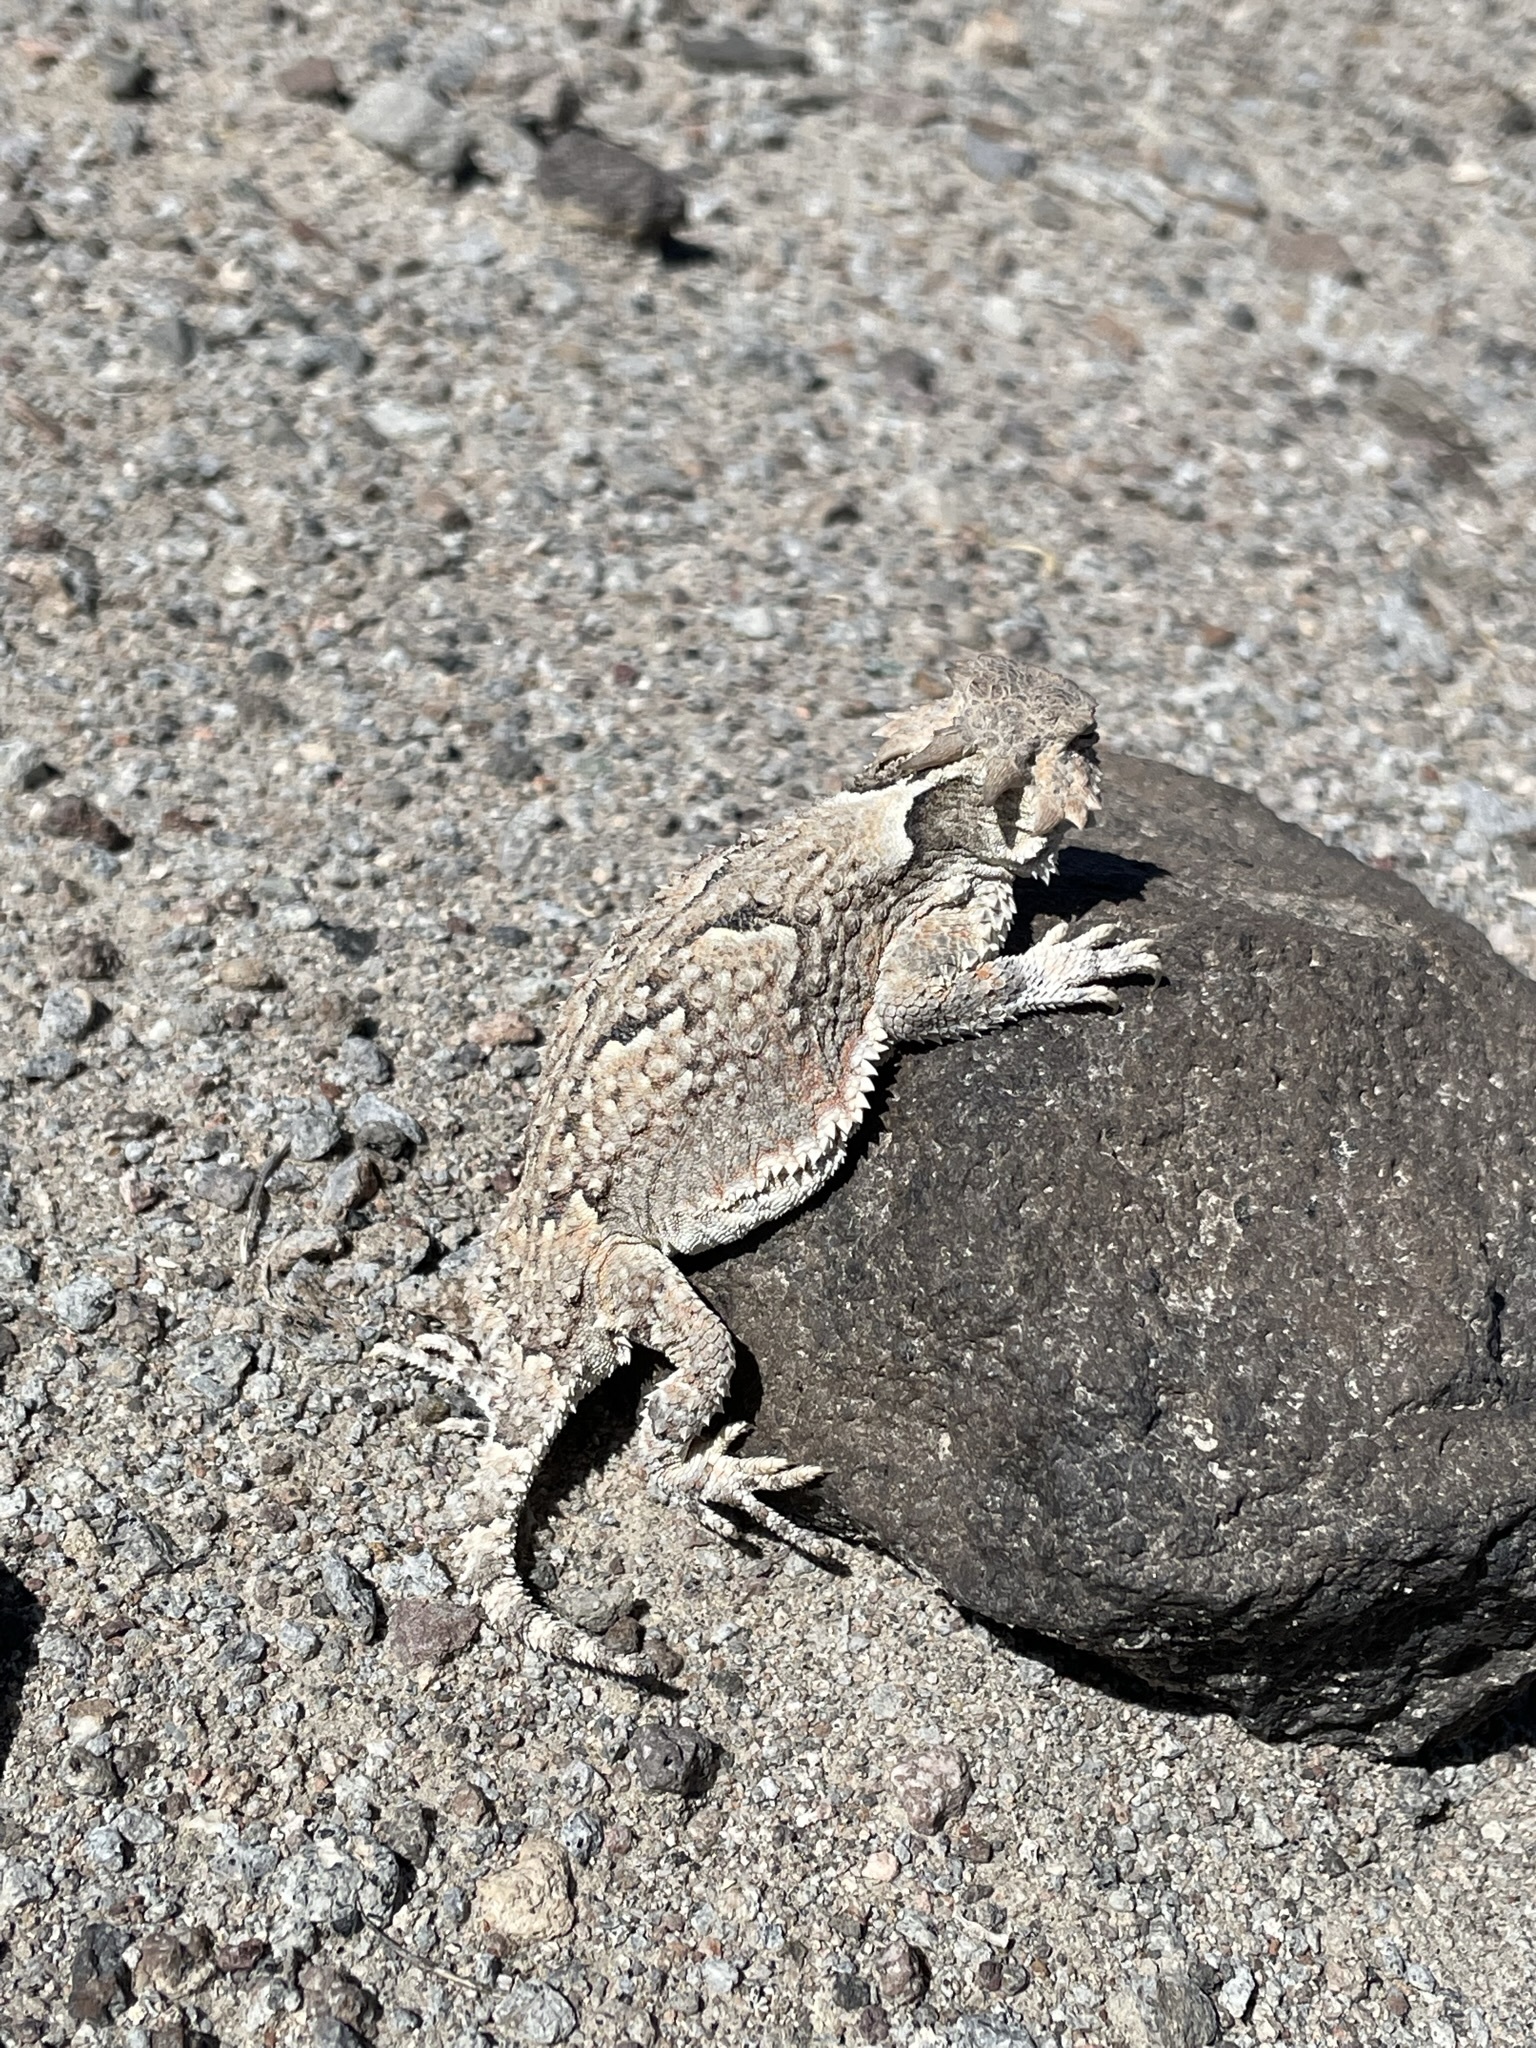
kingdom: Animalia
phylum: Chordata
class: Squamata
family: Phrynosomatidae
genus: Phrynosoma
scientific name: Phrynosoma platyrhinos
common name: Desert horned lizard
